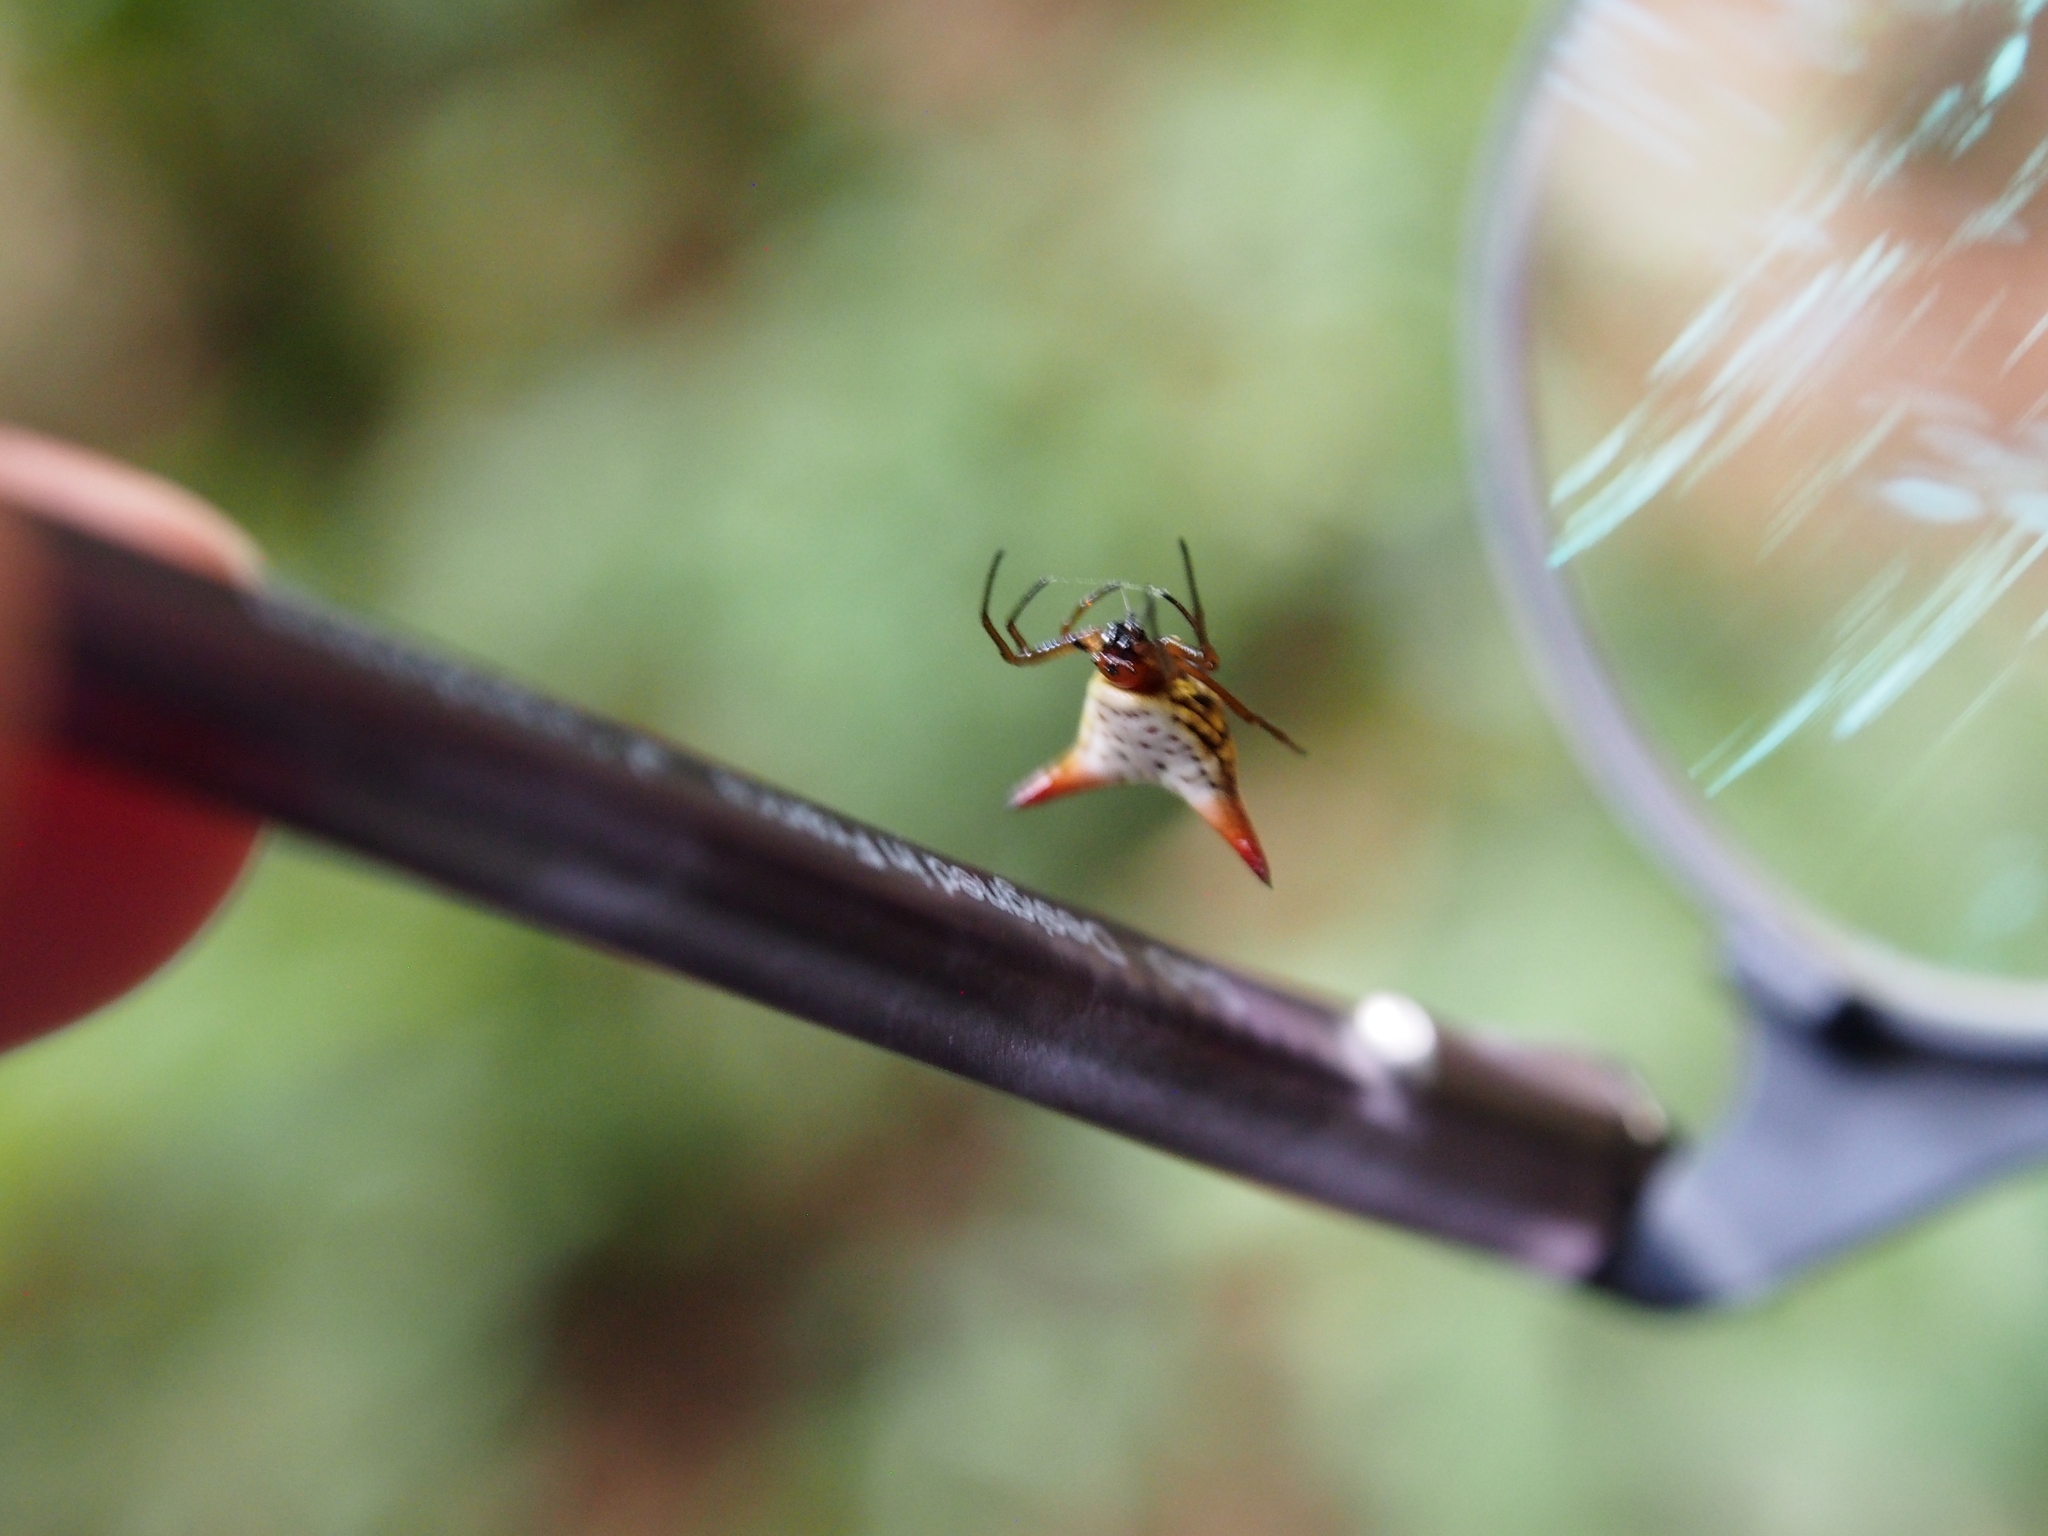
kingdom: Animalia
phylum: Arthropoda
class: Arachnida
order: Araneae
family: Araneidae
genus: Micrathena
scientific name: Micrathena bimucronata
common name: Orb weavers
